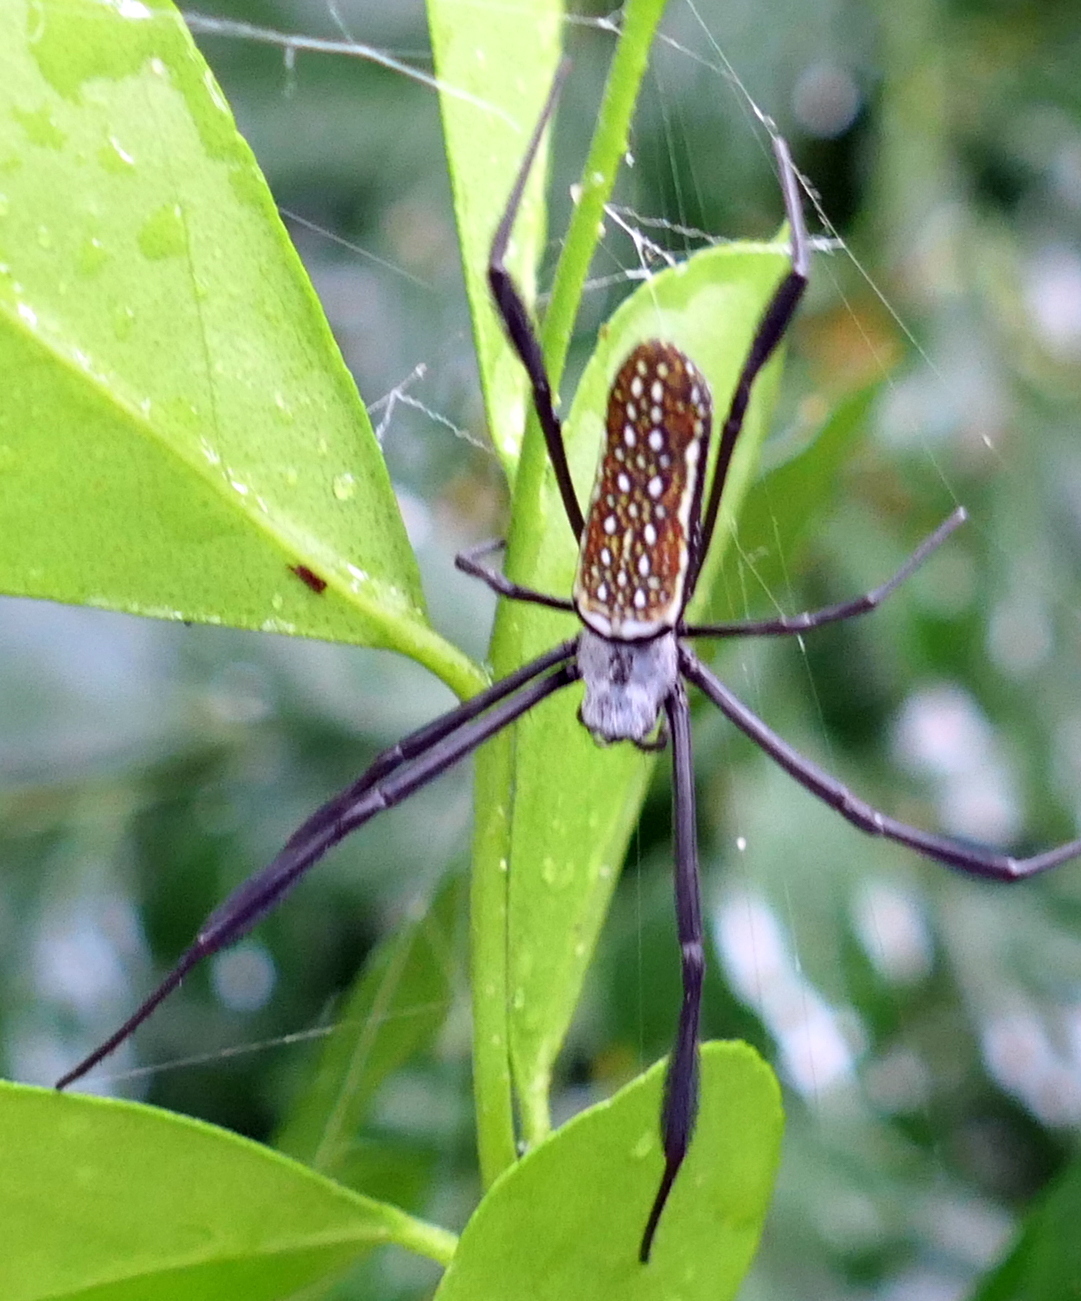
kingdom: Animalia
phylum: Arthropoda
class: Arachnida
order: Araneae
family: Araneidae
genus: Trichonephila
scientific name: Trichonephila clavipes
